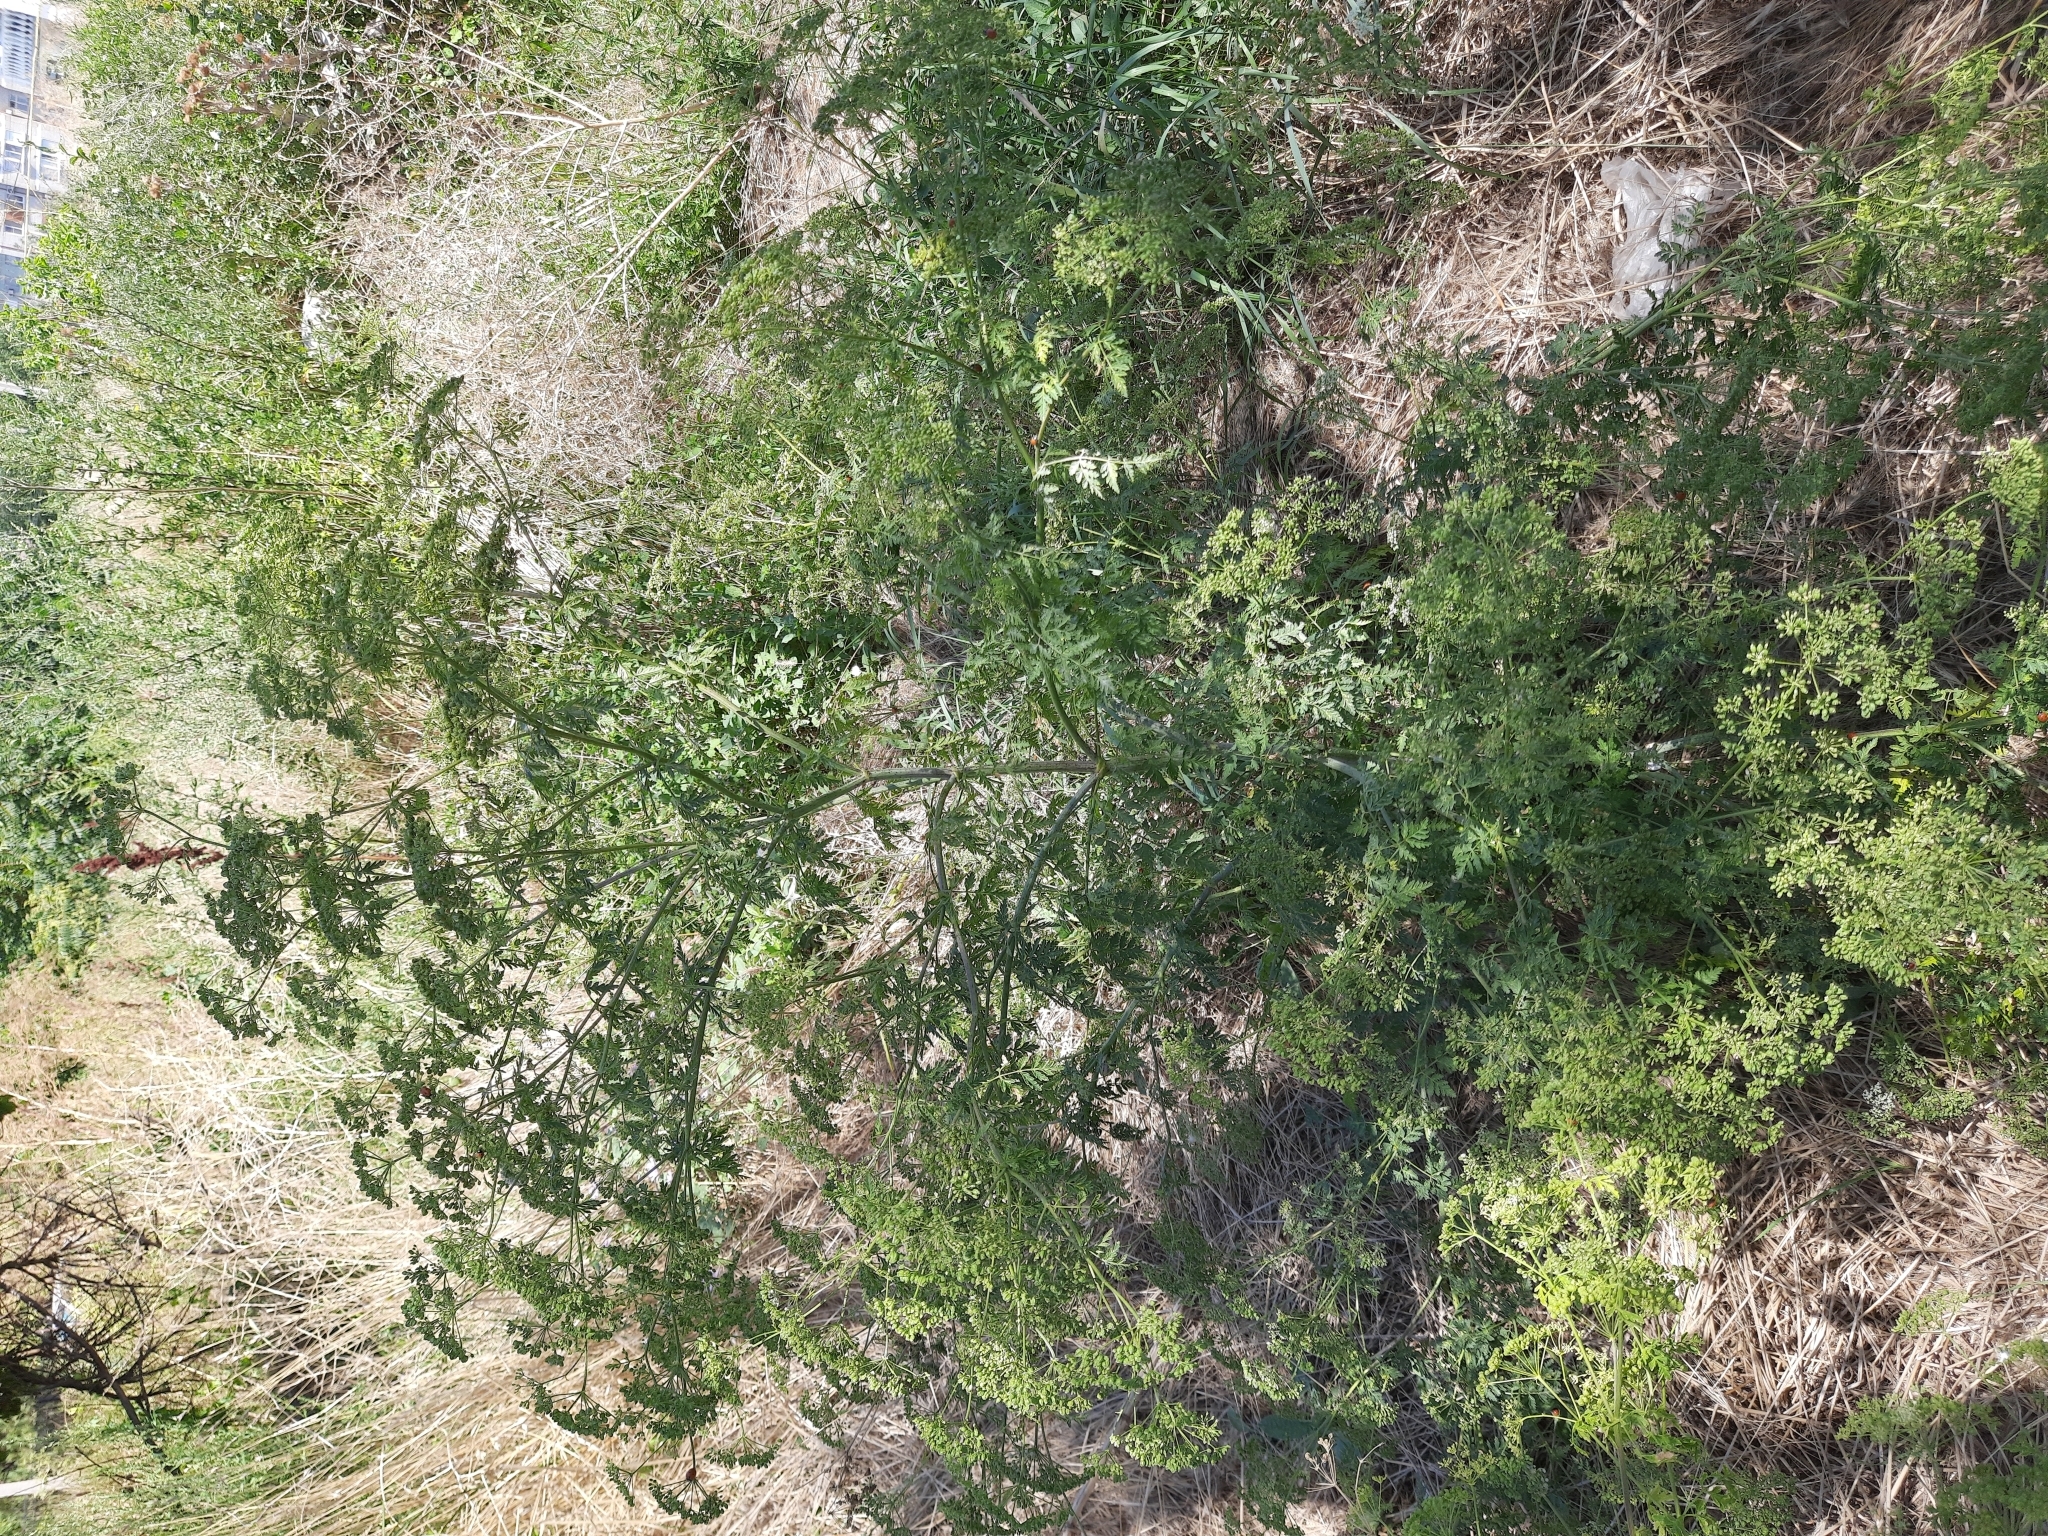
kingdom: Plantae
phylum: Tracheophyta
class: Magnoliopsida
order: Apiales
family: Apiaceae
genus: Conium
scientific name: Conium maculatum
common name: Hemlock
